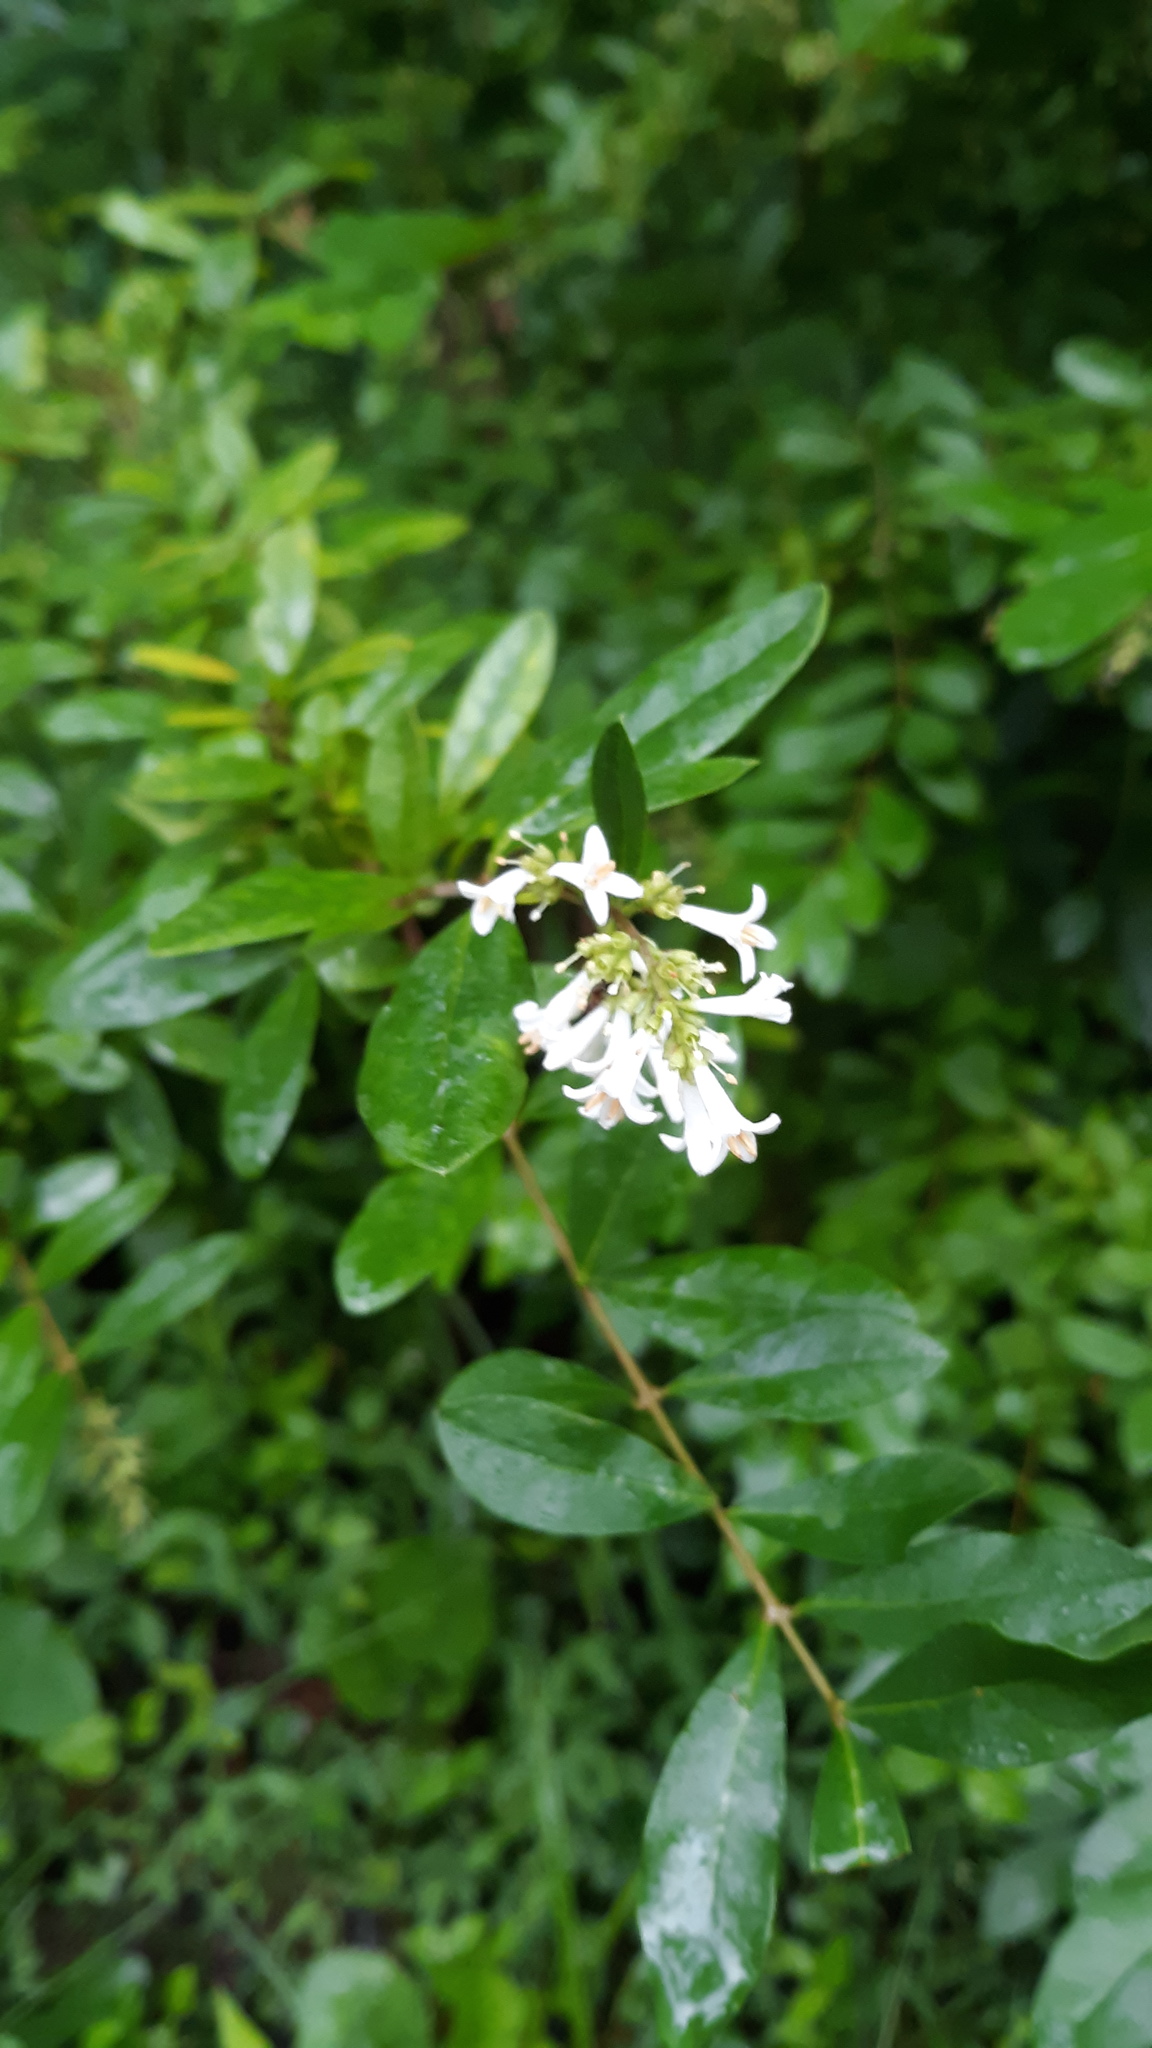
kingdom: Plantae
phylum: Tracheophyta
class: Magnoliopsida
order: Lamiales
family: Oleaceae
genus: Ligustrum
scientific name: Ligustrum obtusifolium
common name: Border privet
